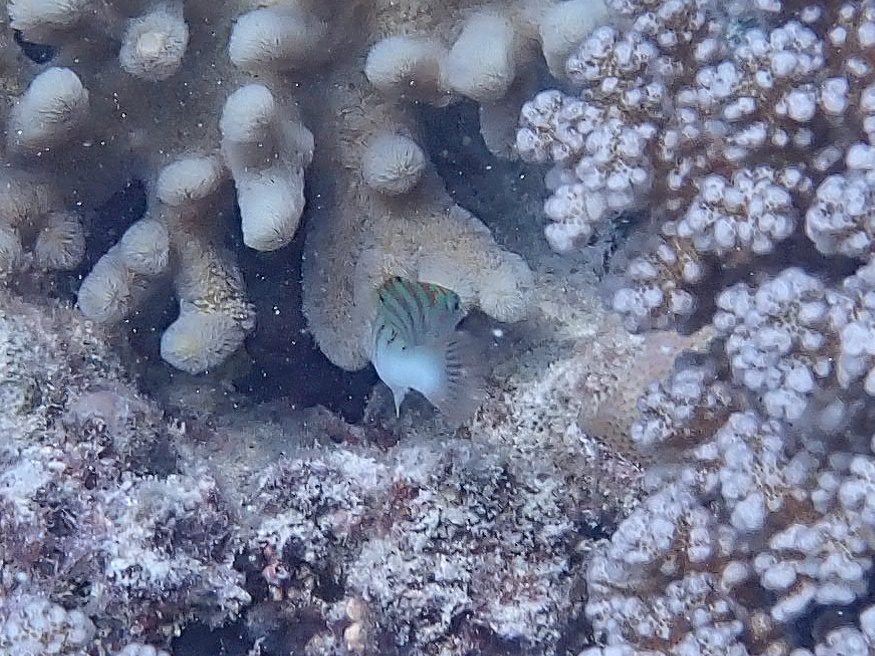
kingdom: Animalia
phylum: Chordata
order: Perciformes
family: Labridae
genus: Thalassoma
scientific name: Thalassoma hardwicke
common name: Sixbar wrasse
